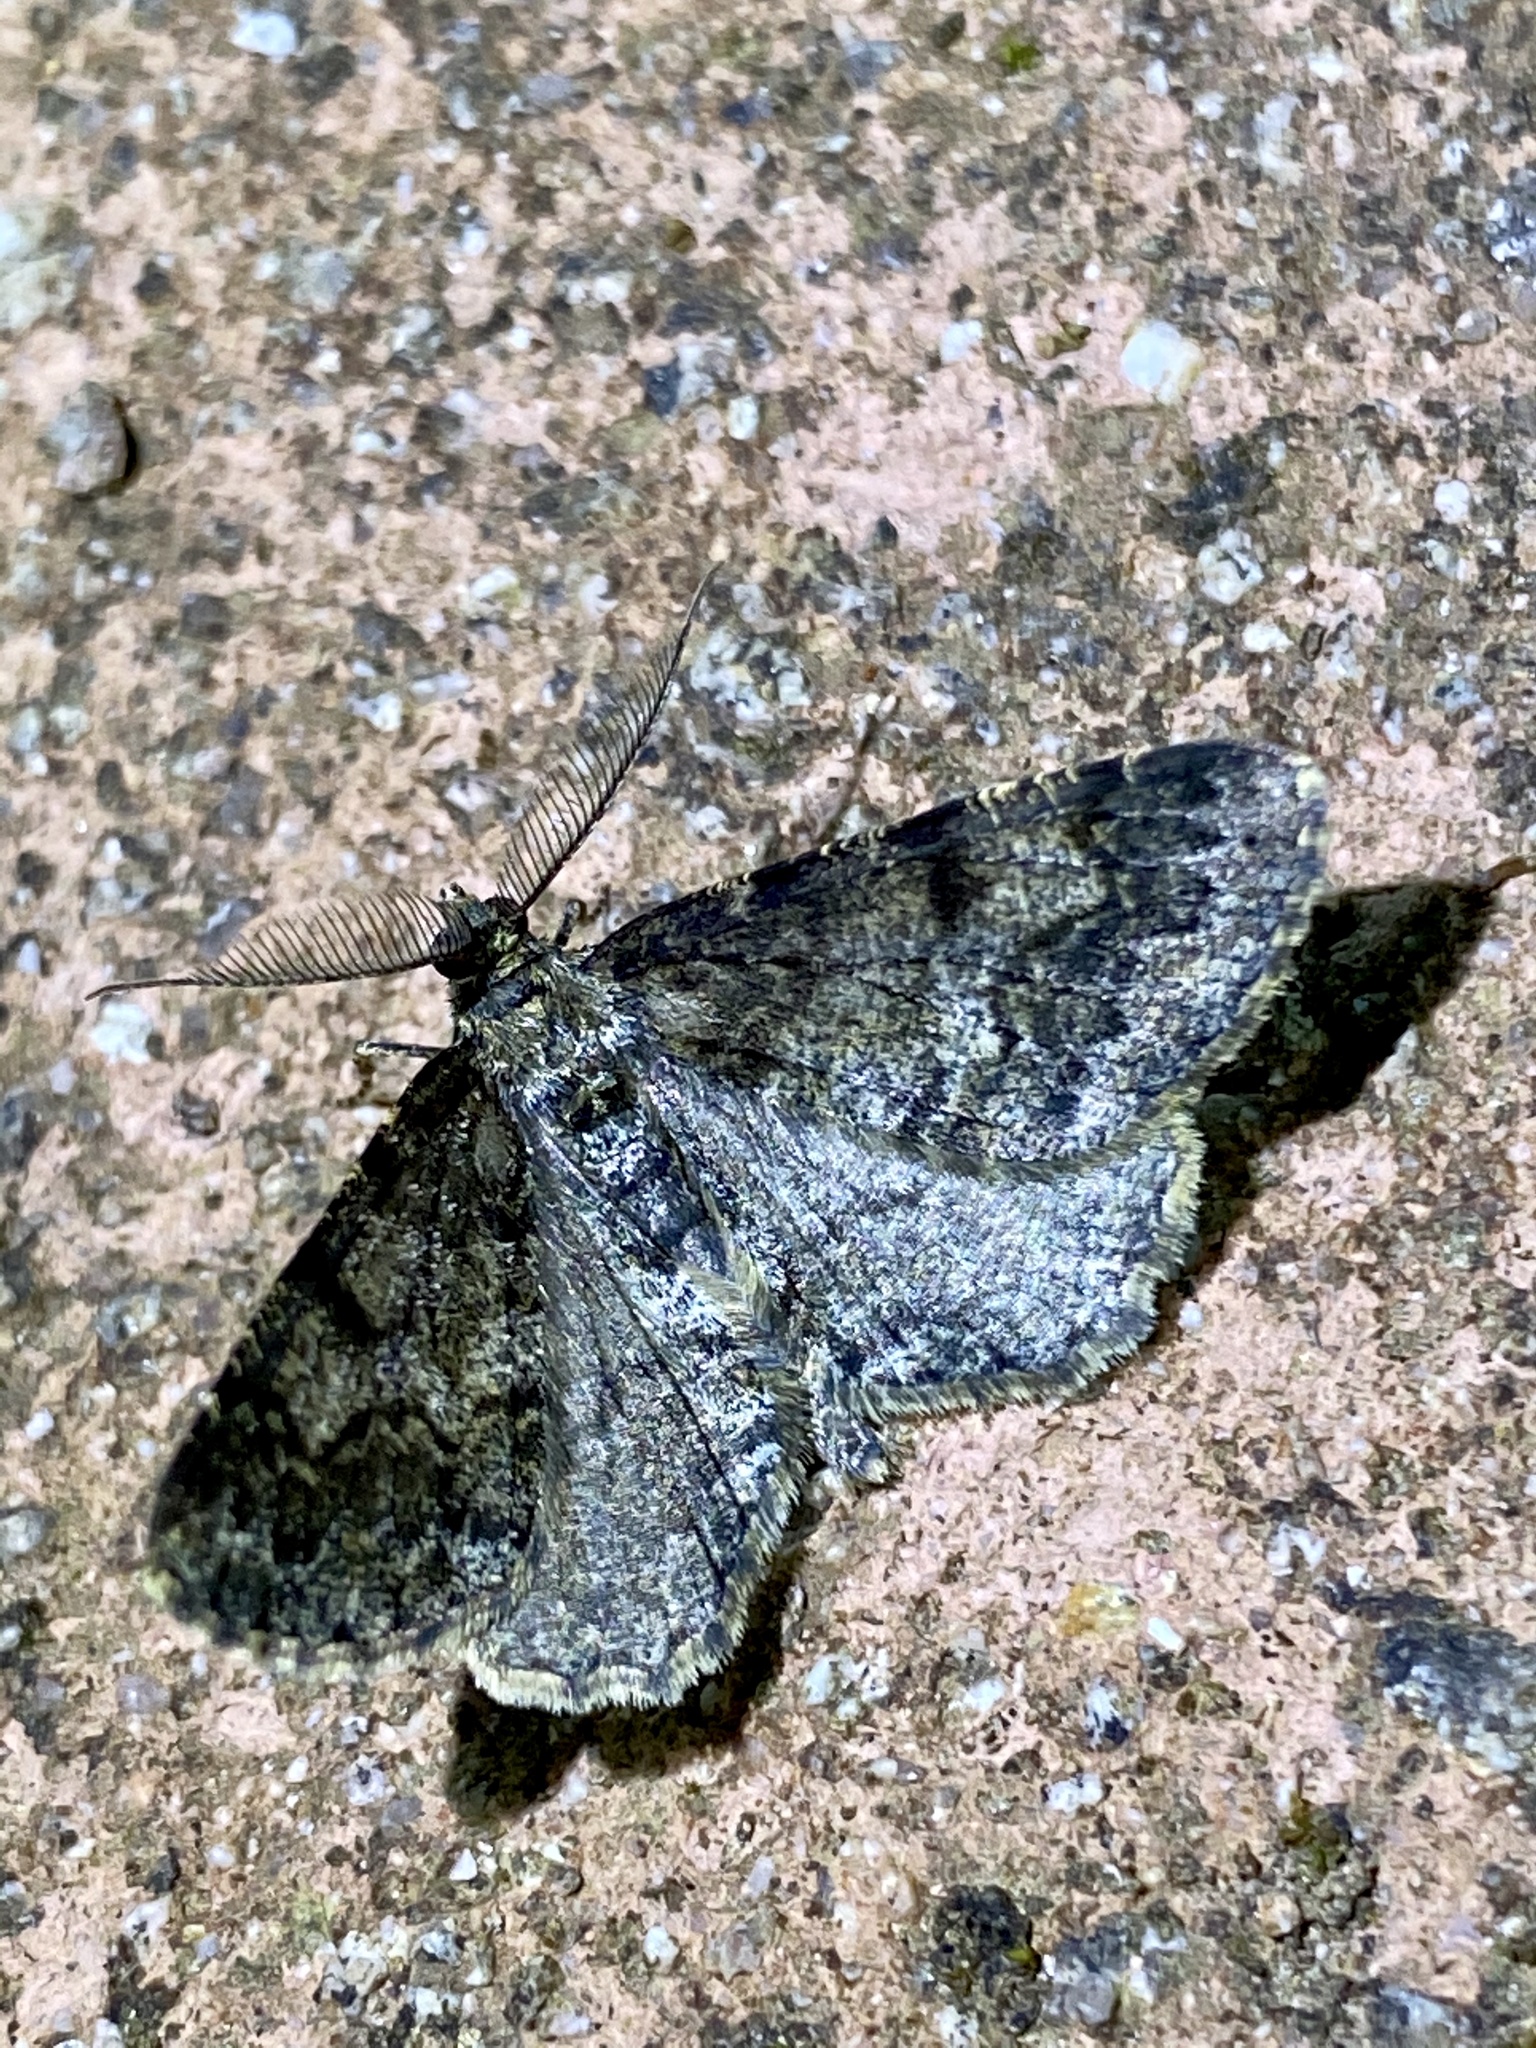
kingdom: Animalia
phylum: Arthropoda
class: Insecta
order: Lepidoptera
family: Geometridae
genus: Alcis
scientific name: Alcis angulifera
